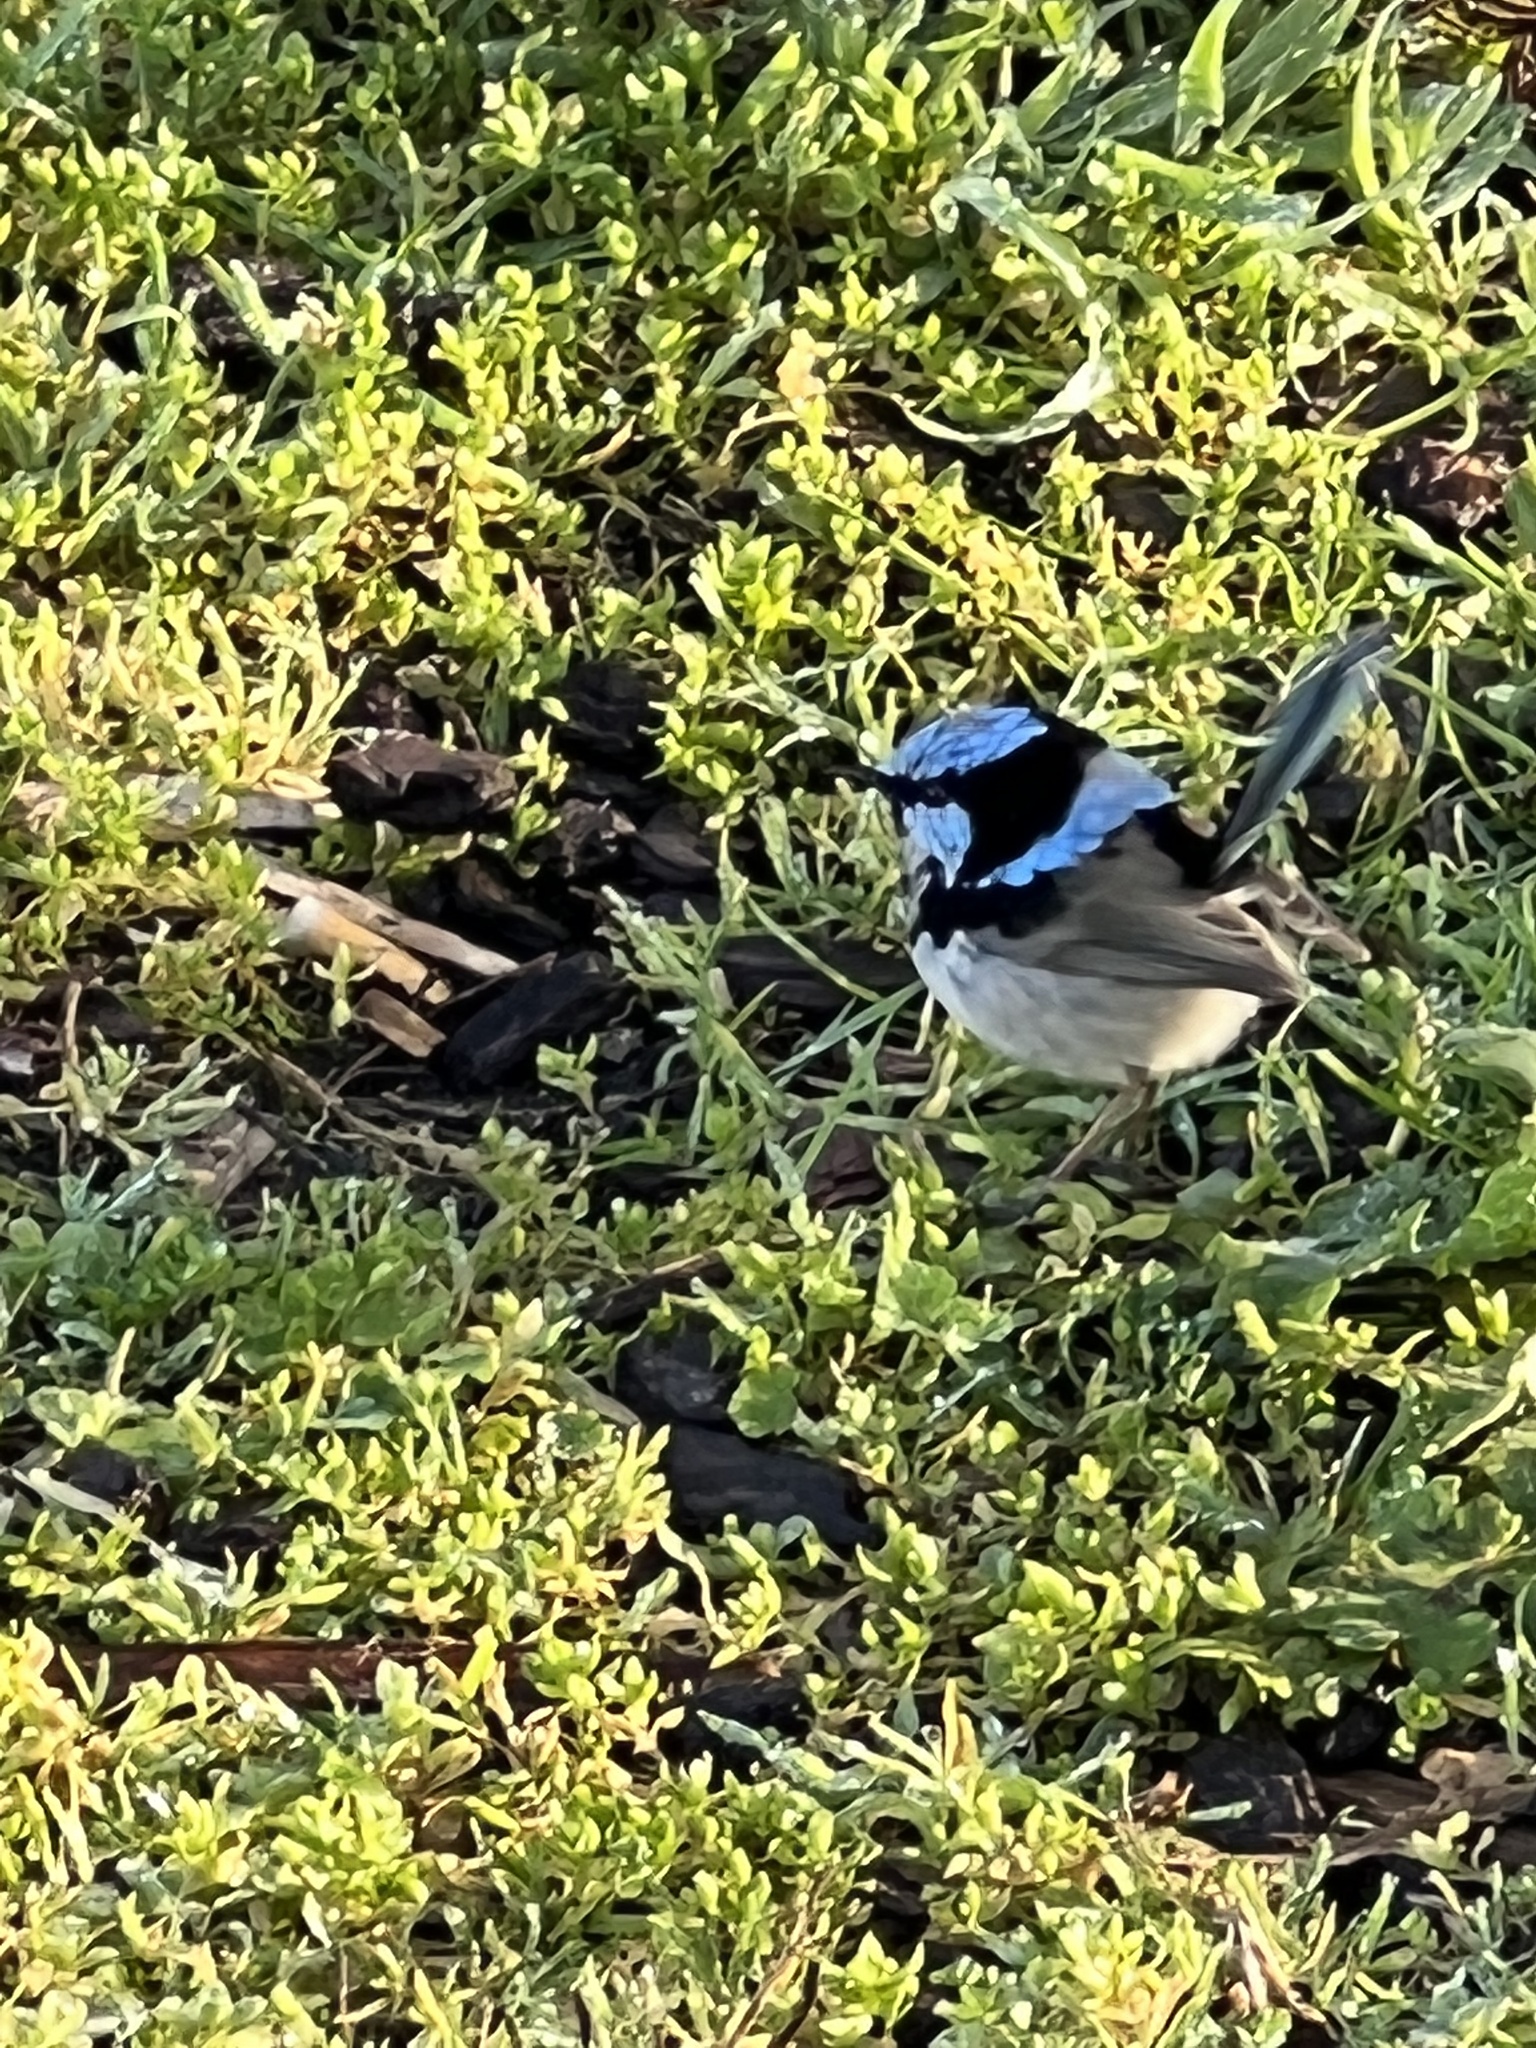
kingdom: Animalia
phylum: Chordata
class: Aves
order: Passeriformes
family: Maluridae
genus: Malurus
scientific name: Malurus cyaneus
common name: Superb fairywren
